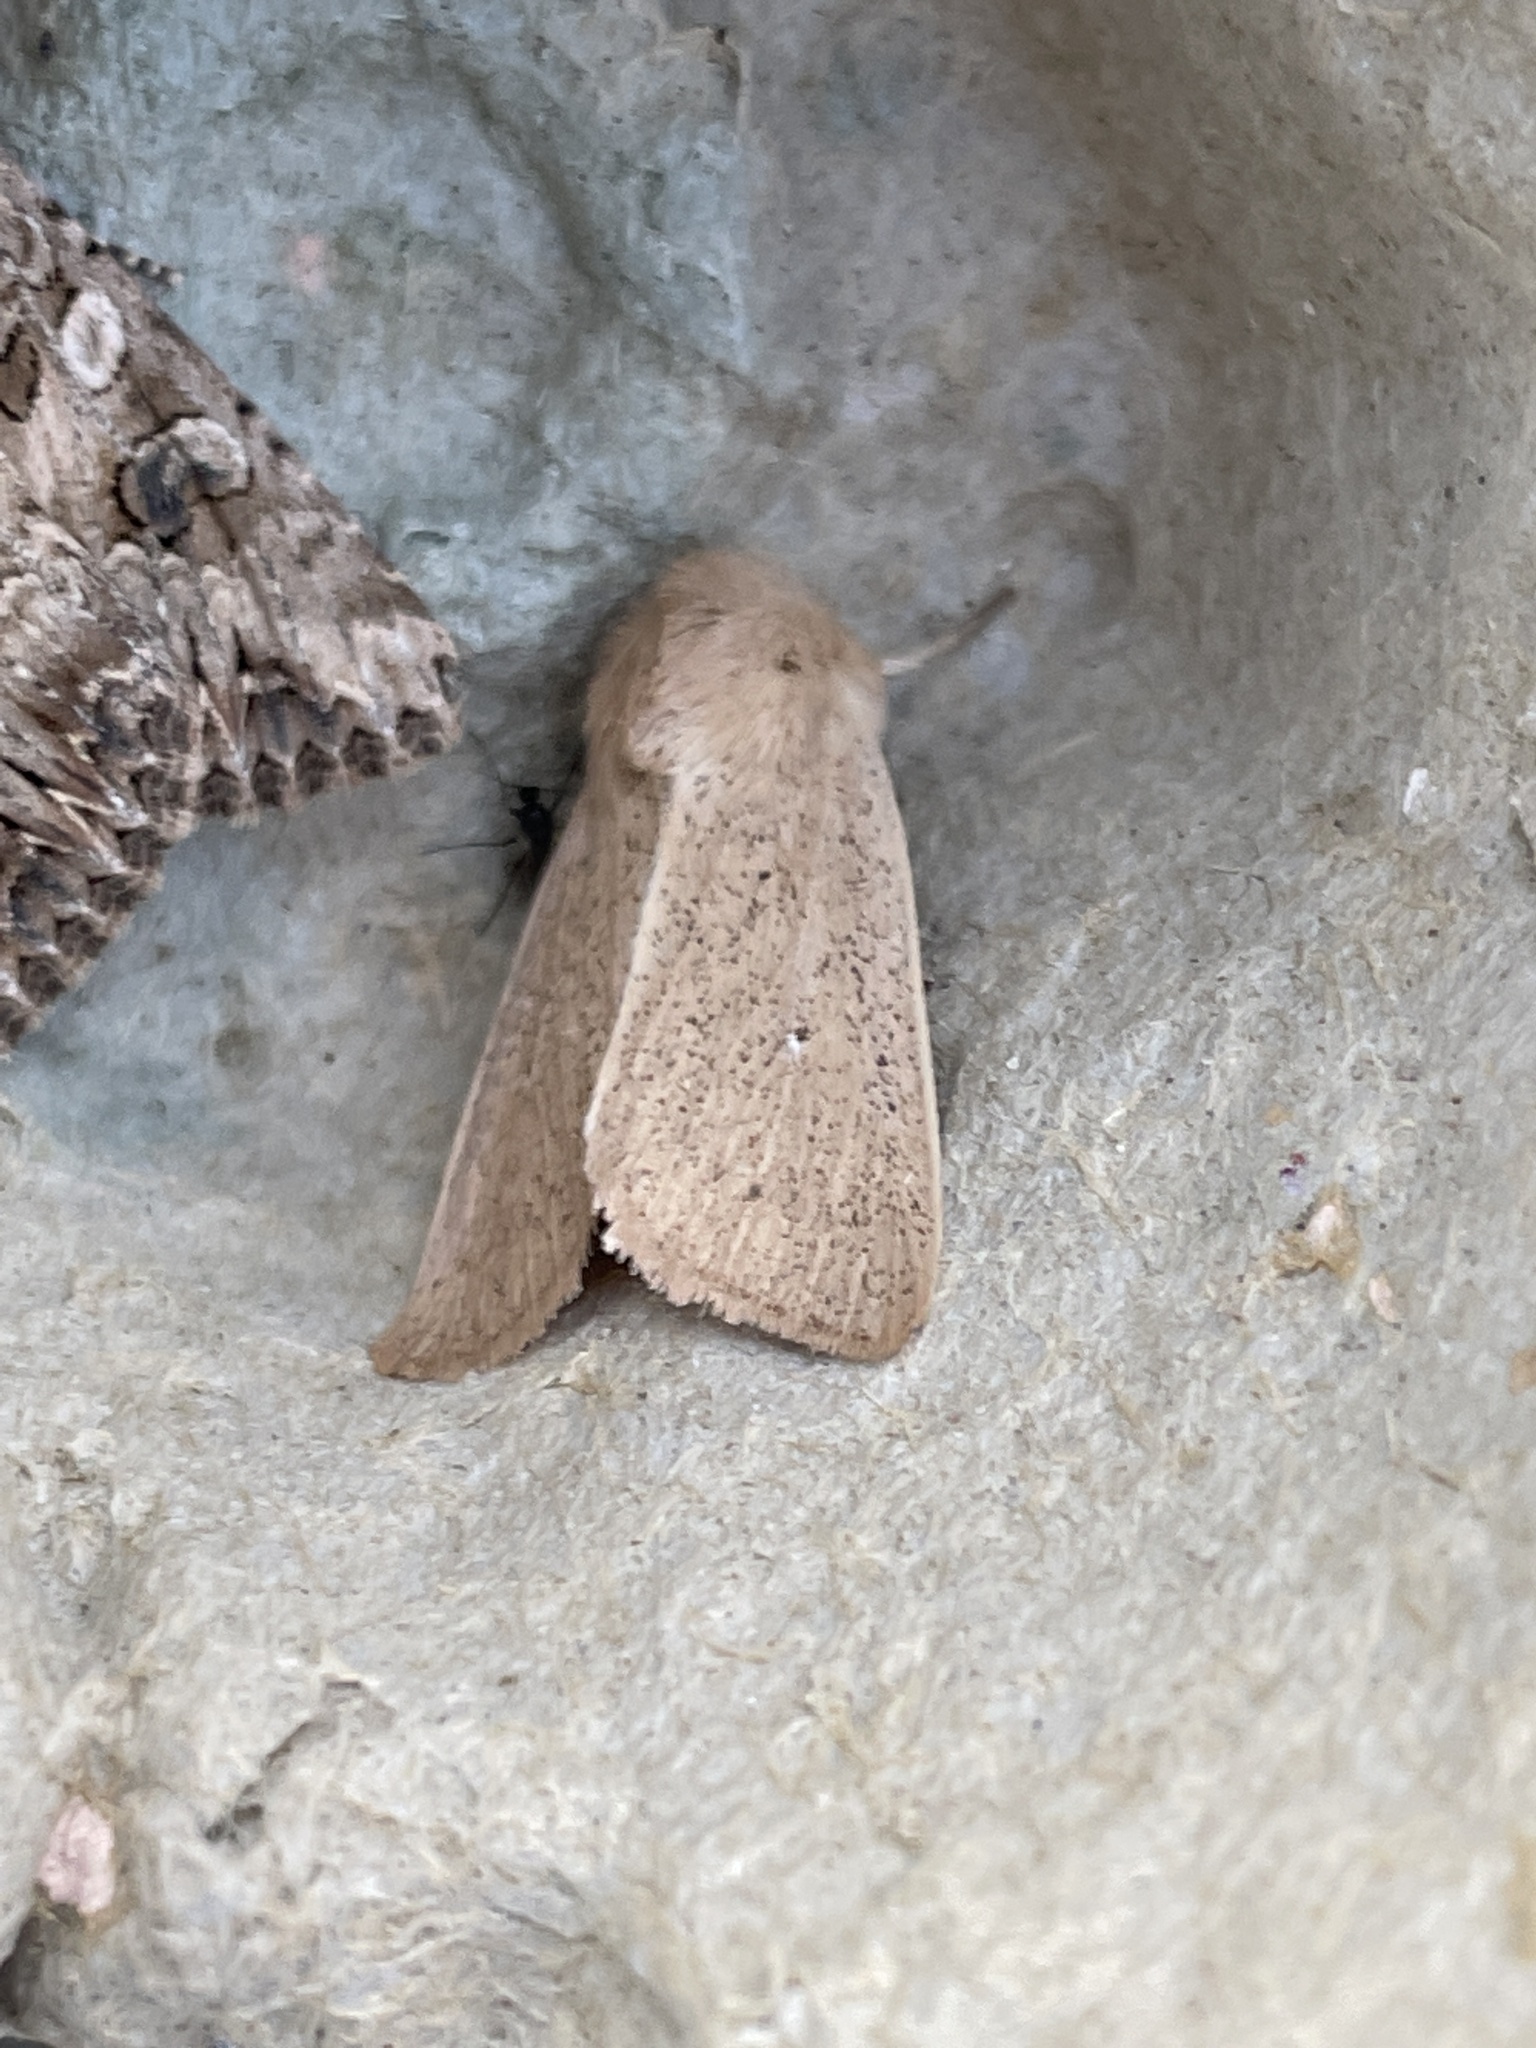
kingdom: Animalia
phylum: Arthropoda
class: Insecta
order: Lepidoptera
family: Noctuidae
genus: Mythimna
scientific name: Mythimna sicula
